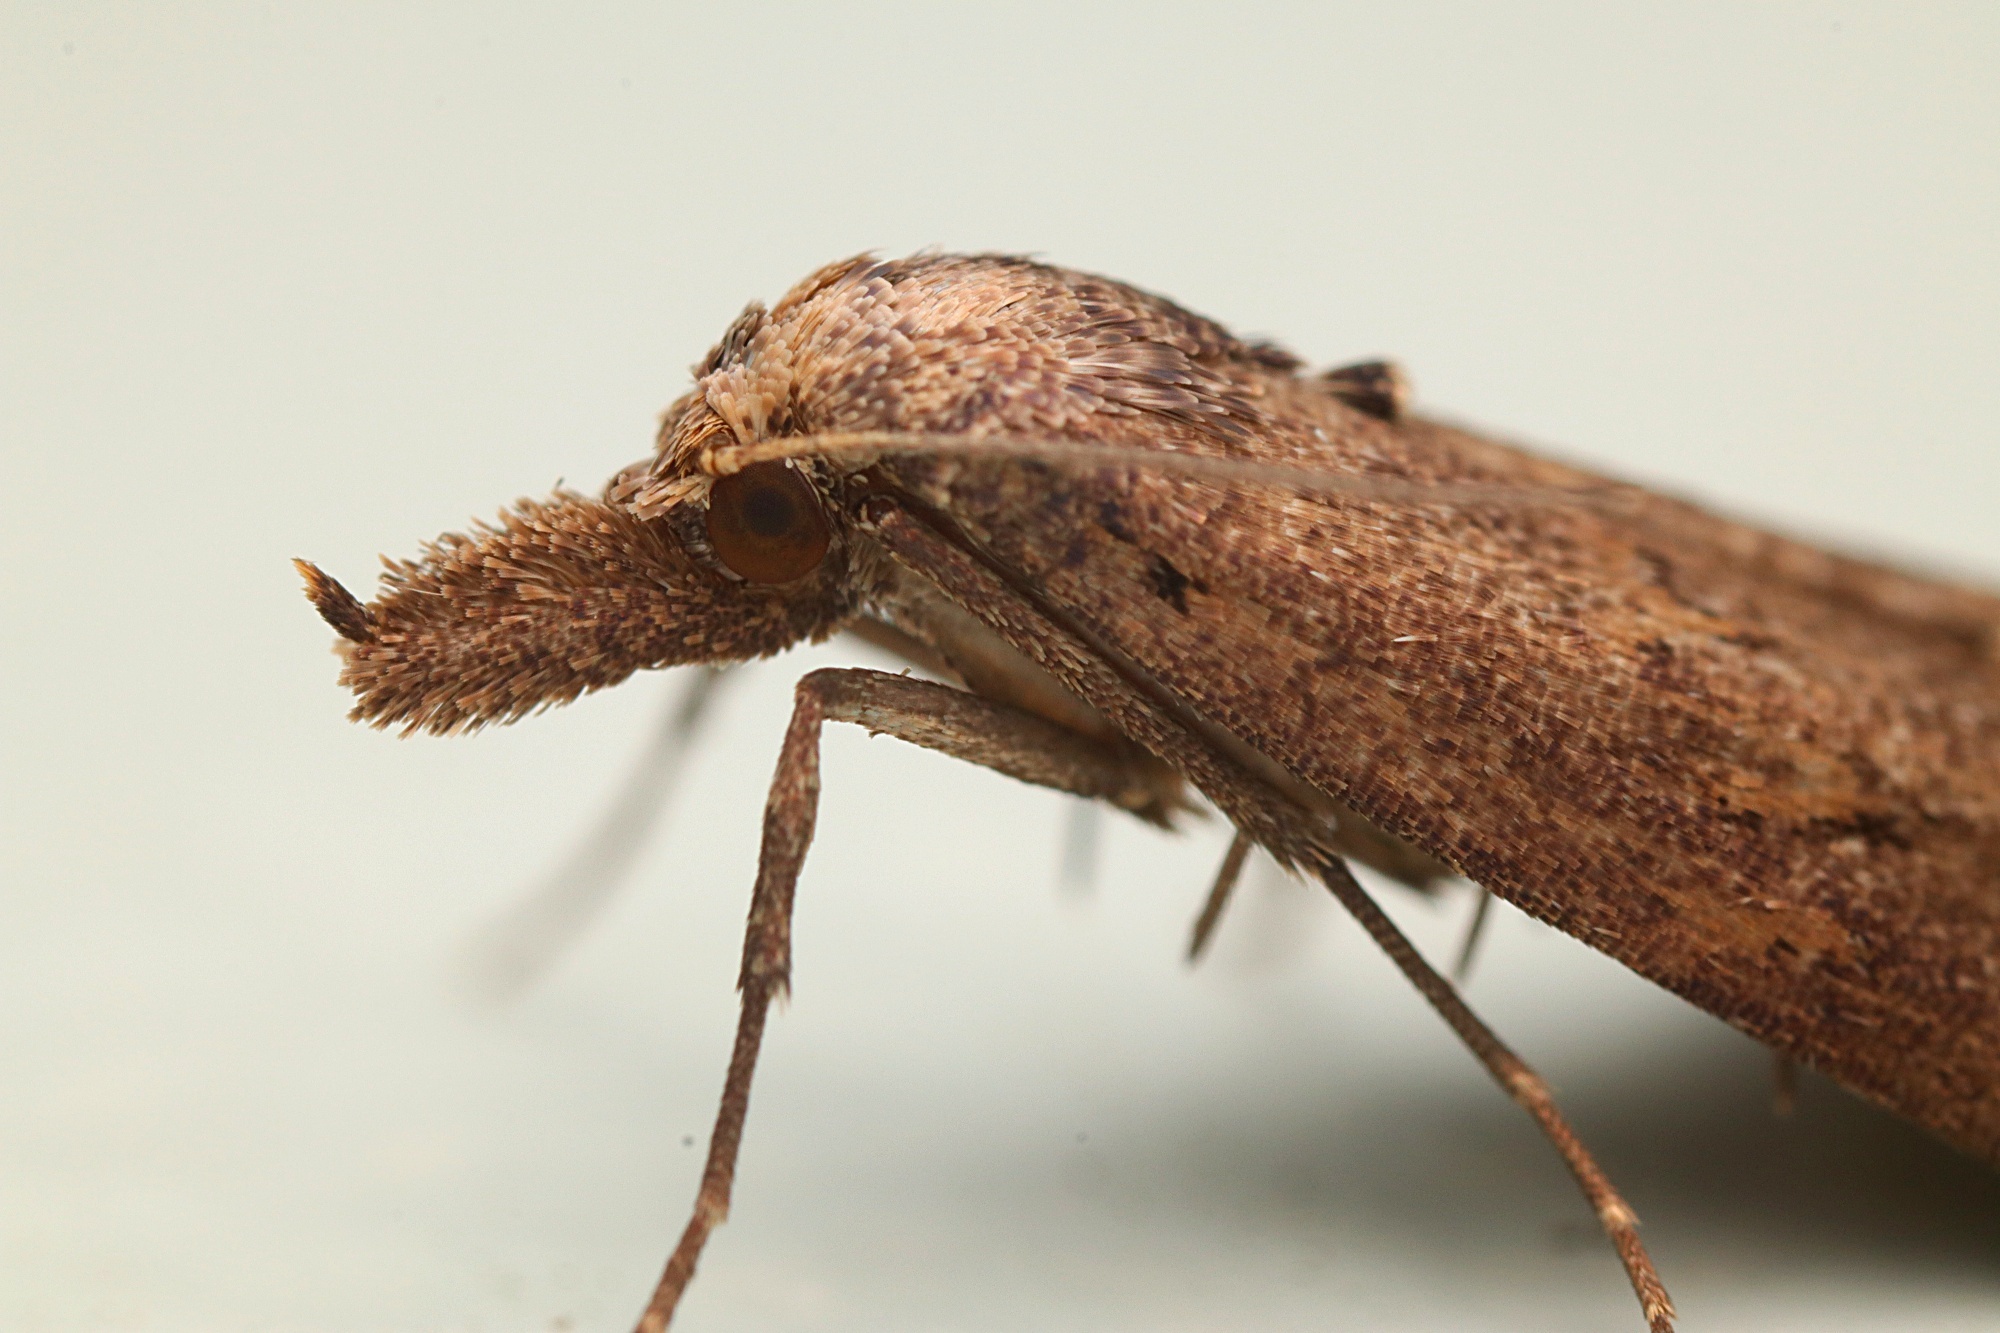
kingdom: Animalia
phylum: Arthropoda
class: Insecta
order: Lepidoptera
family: Erebidae
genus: Schrankia
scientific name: Schrankia costaestrigalis
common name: Pinion-streaked snout
